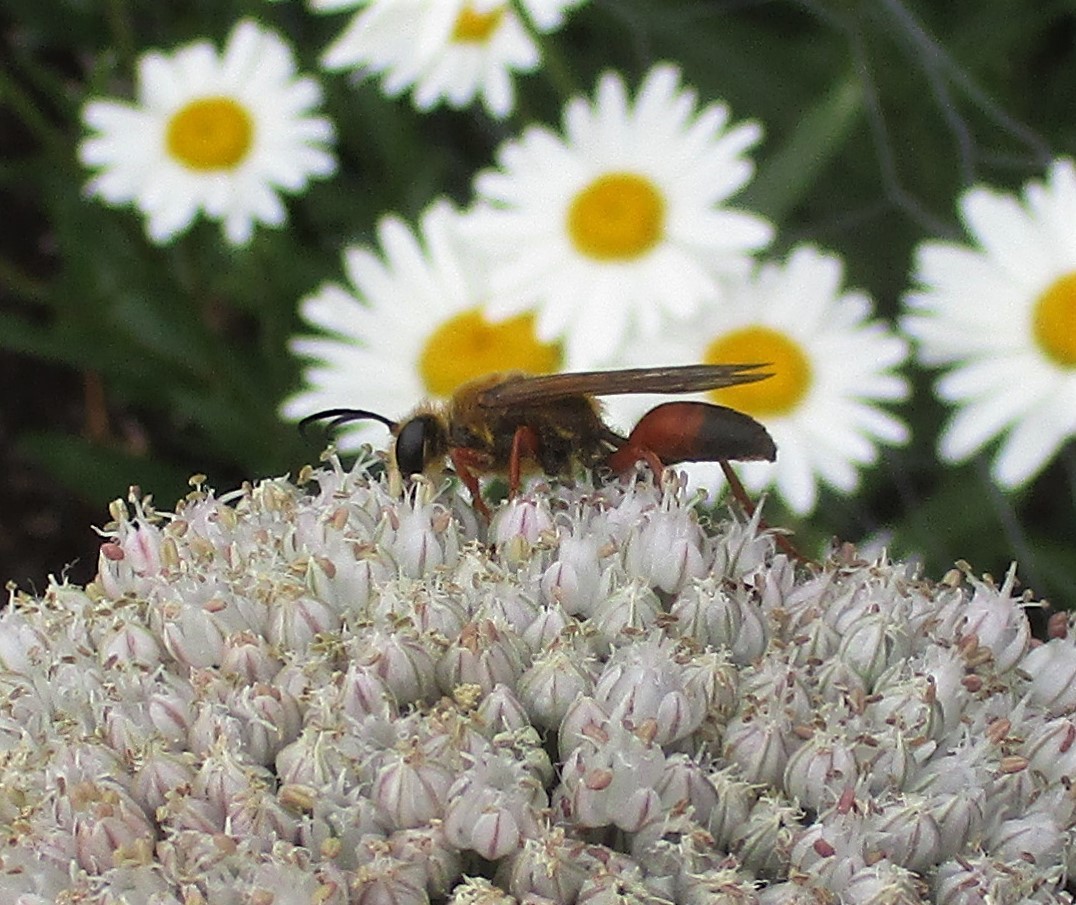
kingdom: Animalia
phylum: Arthropoda
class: Insecta
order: Hymenoptera
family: Sphecidae
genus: Sphex
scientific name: Sphex ichneumoneus
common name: Great golden digger wasp
